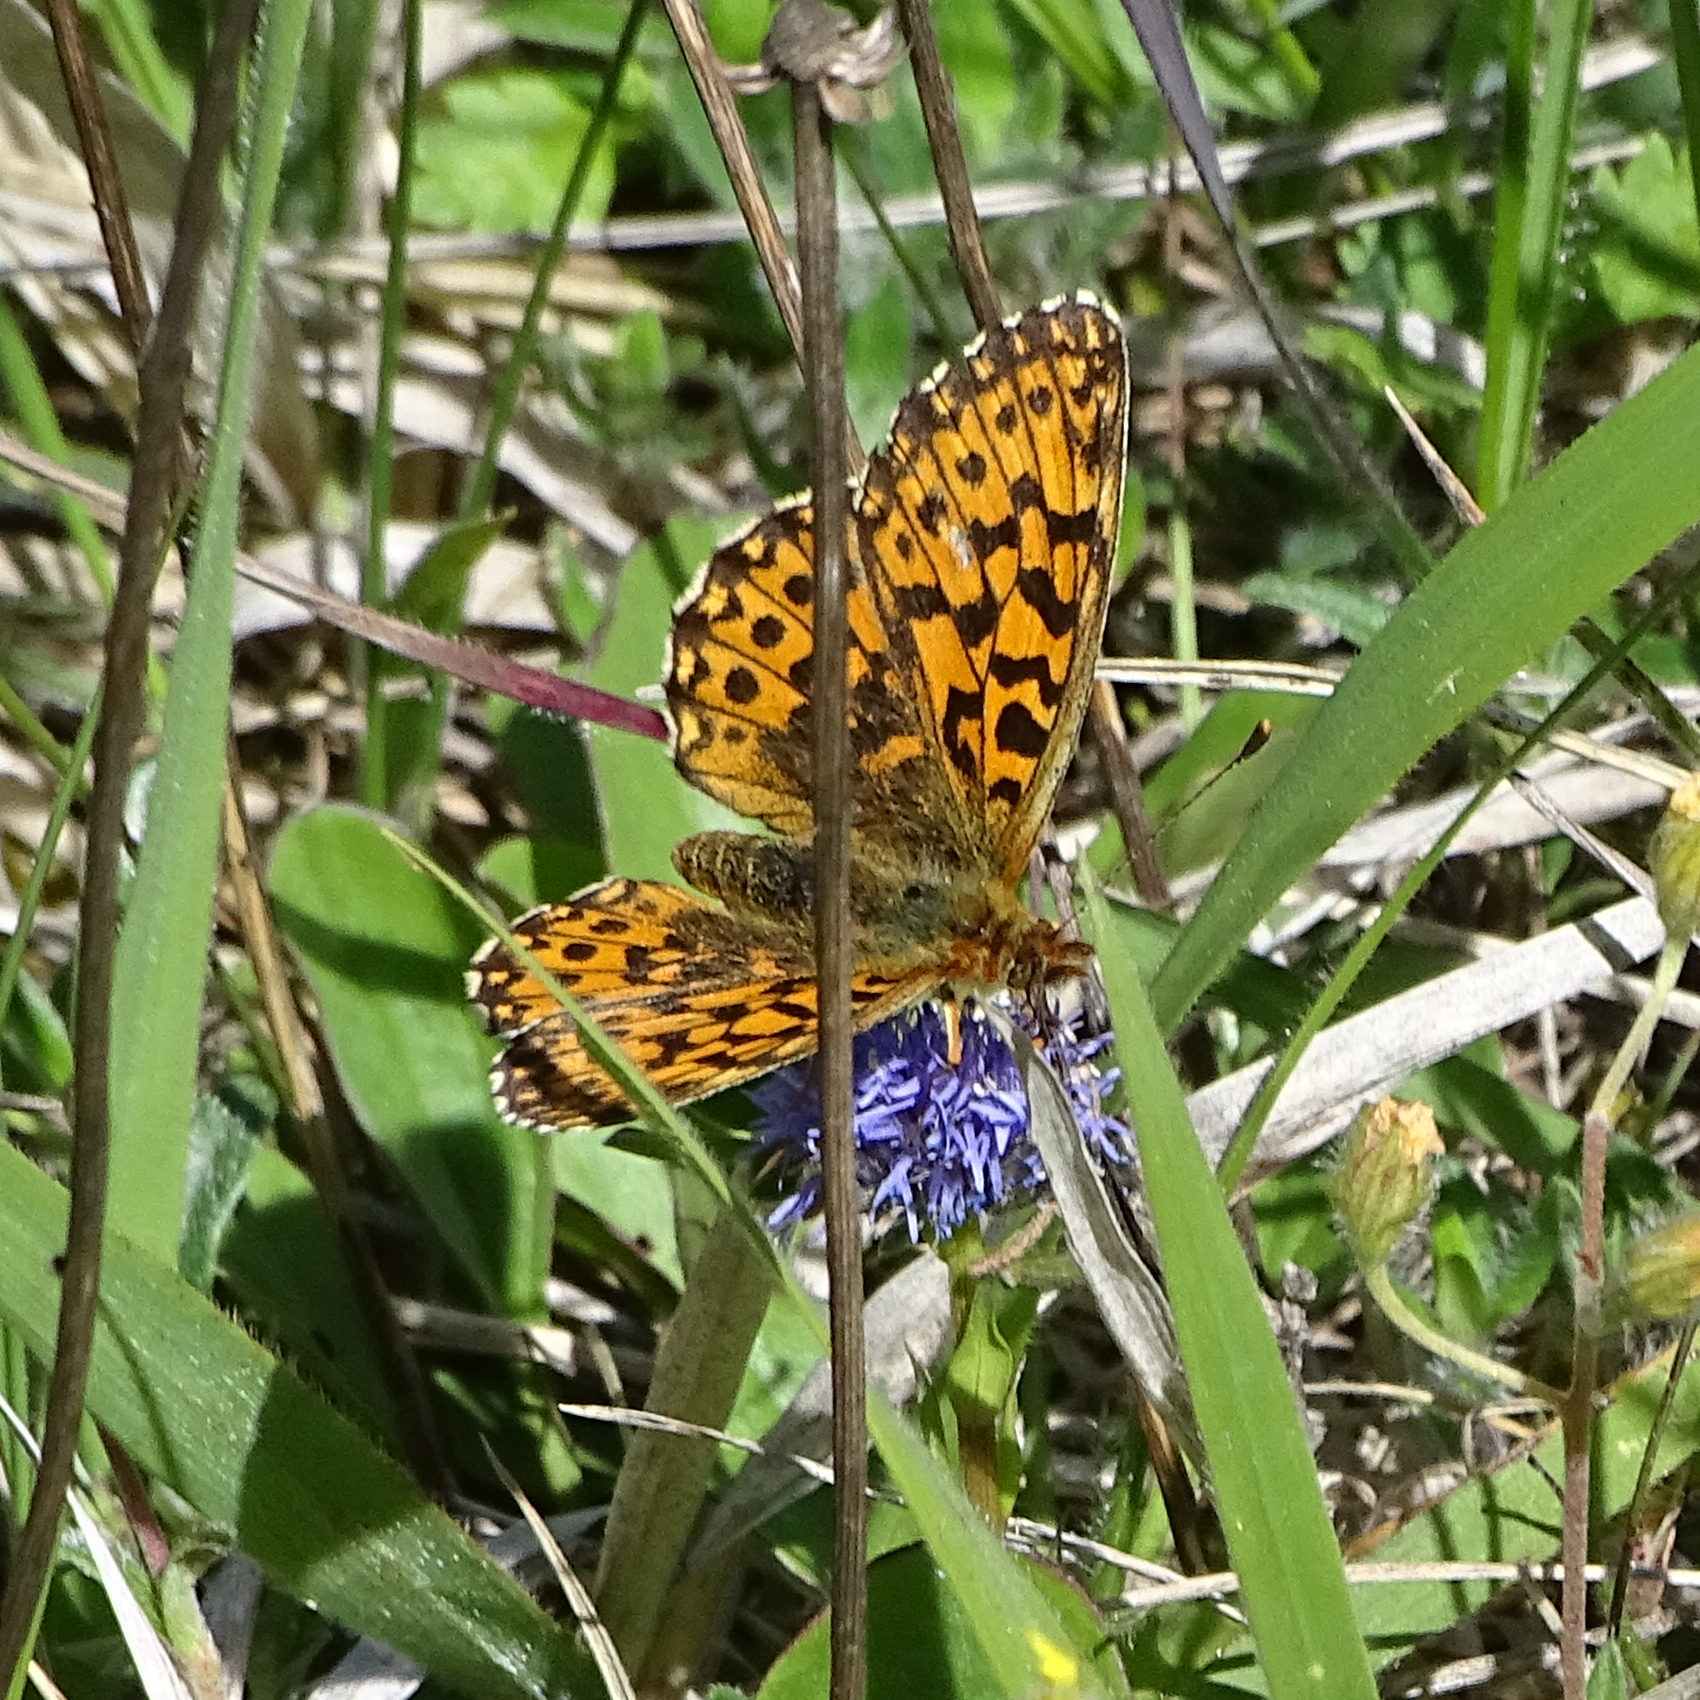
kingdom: Animalia
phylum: Arthropoda
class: Insecta
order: Lepidoptera
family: Nymphalidae
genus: Boloria
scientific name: Boloria dia
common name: Weaver's fritillary
